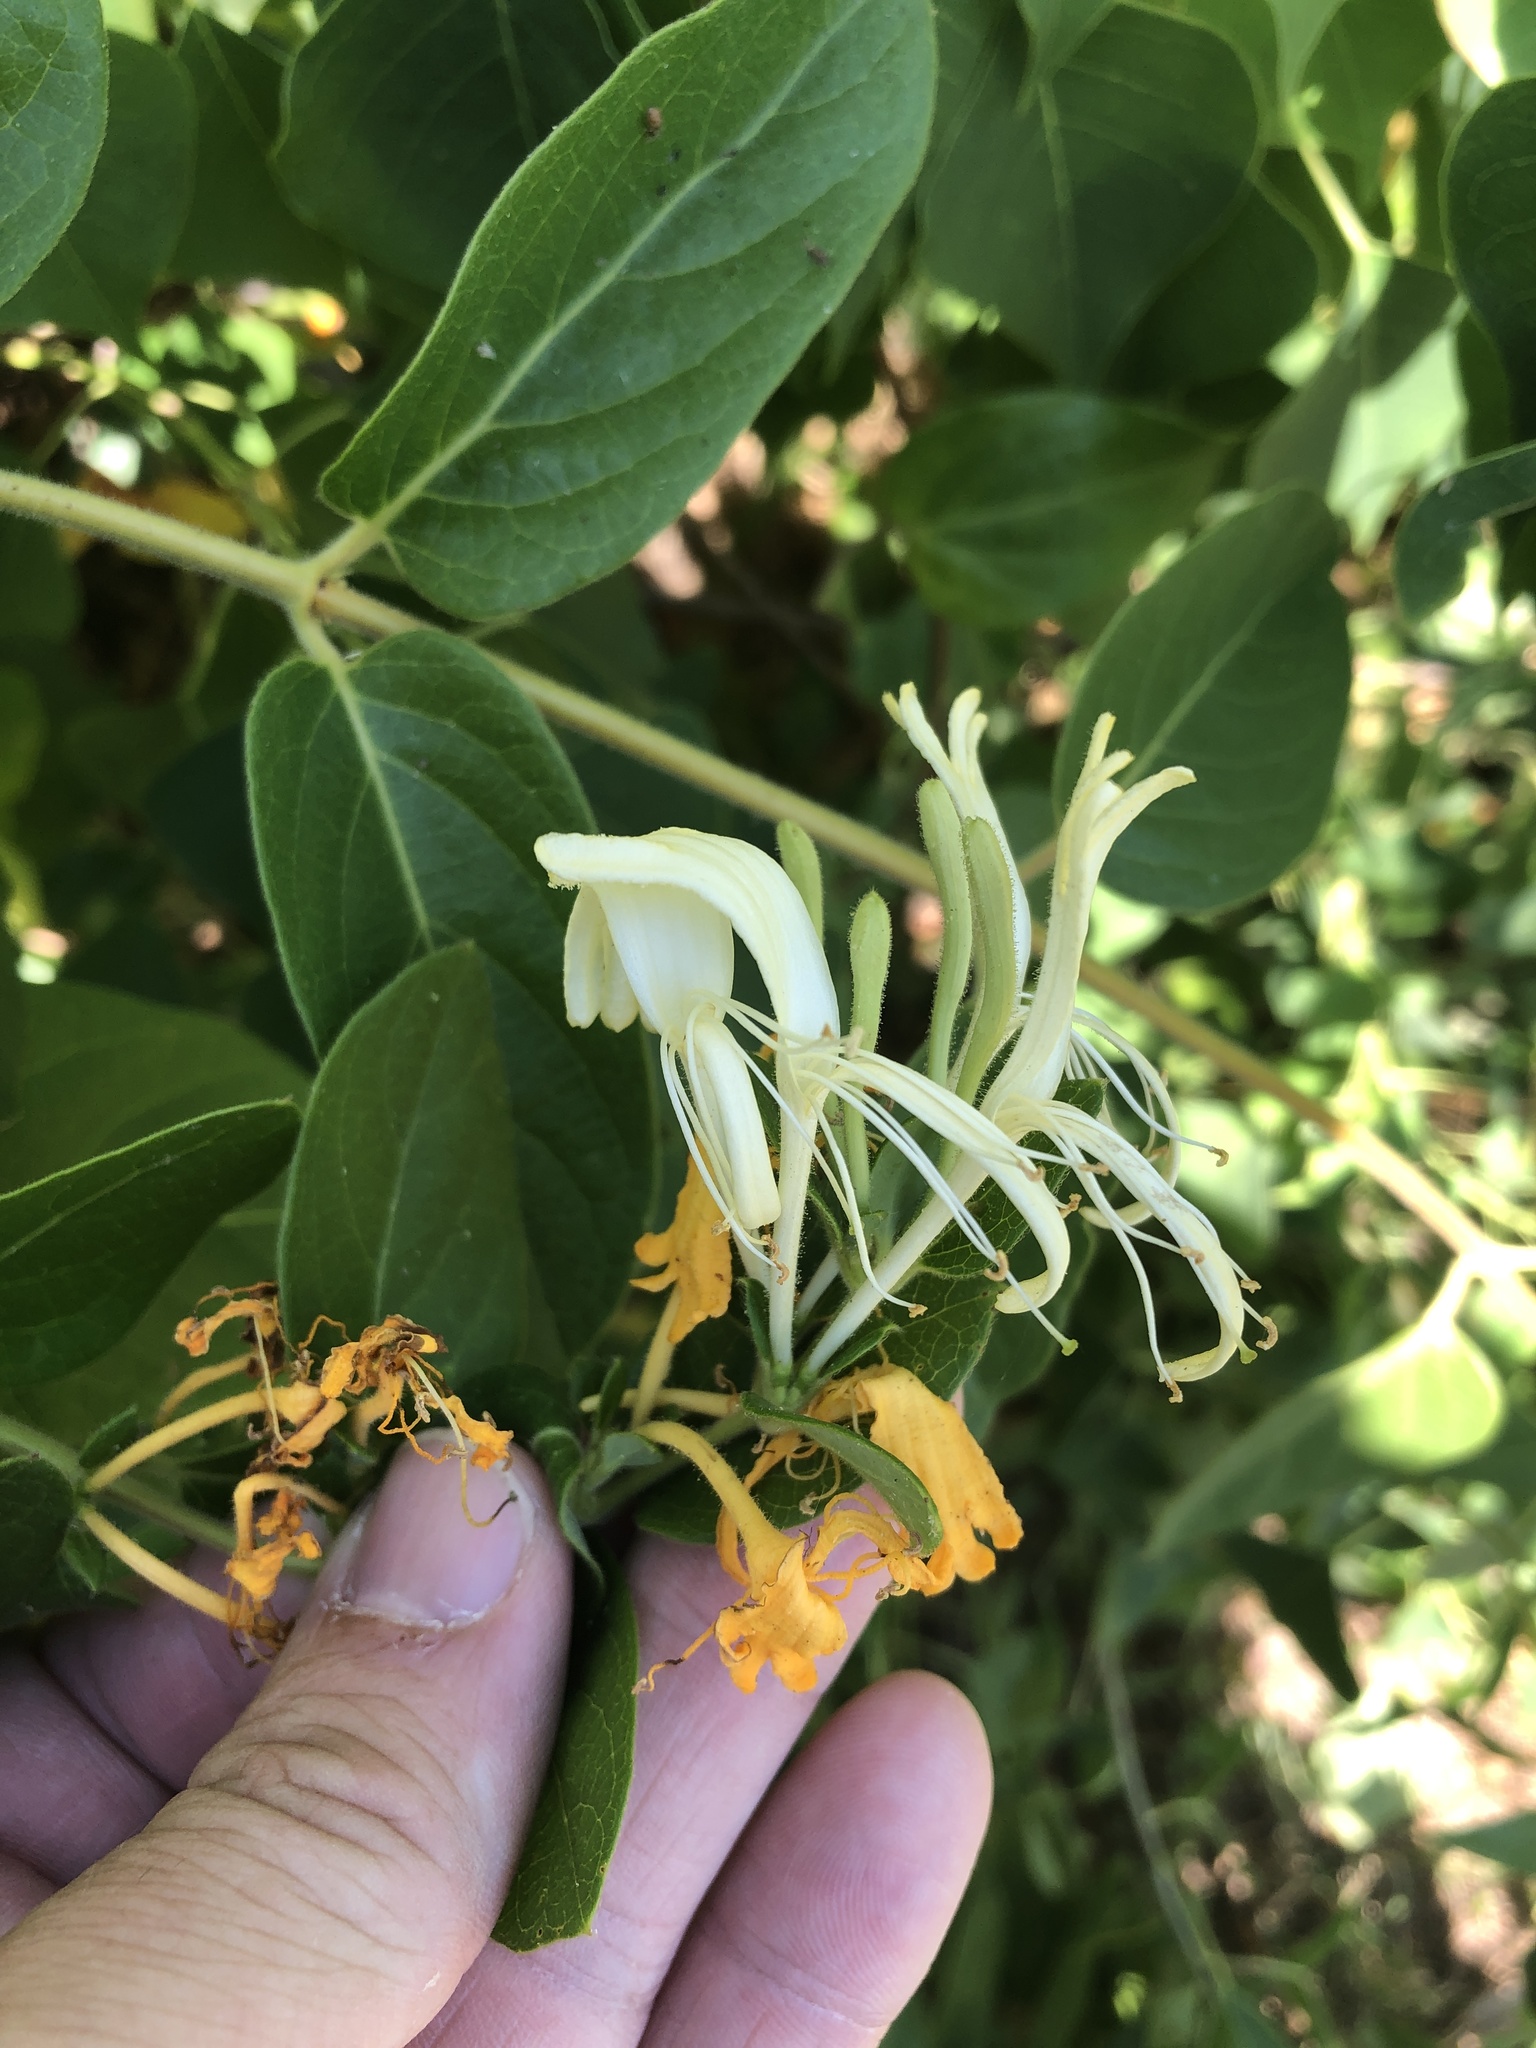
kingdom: Plantae
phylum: Tracheophyta
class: Magnoliopsida
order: Dipsacales
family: Caprifoliaceae
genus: Lonicera
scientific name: Lonicera japonica
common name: Japanese honeysuckle
